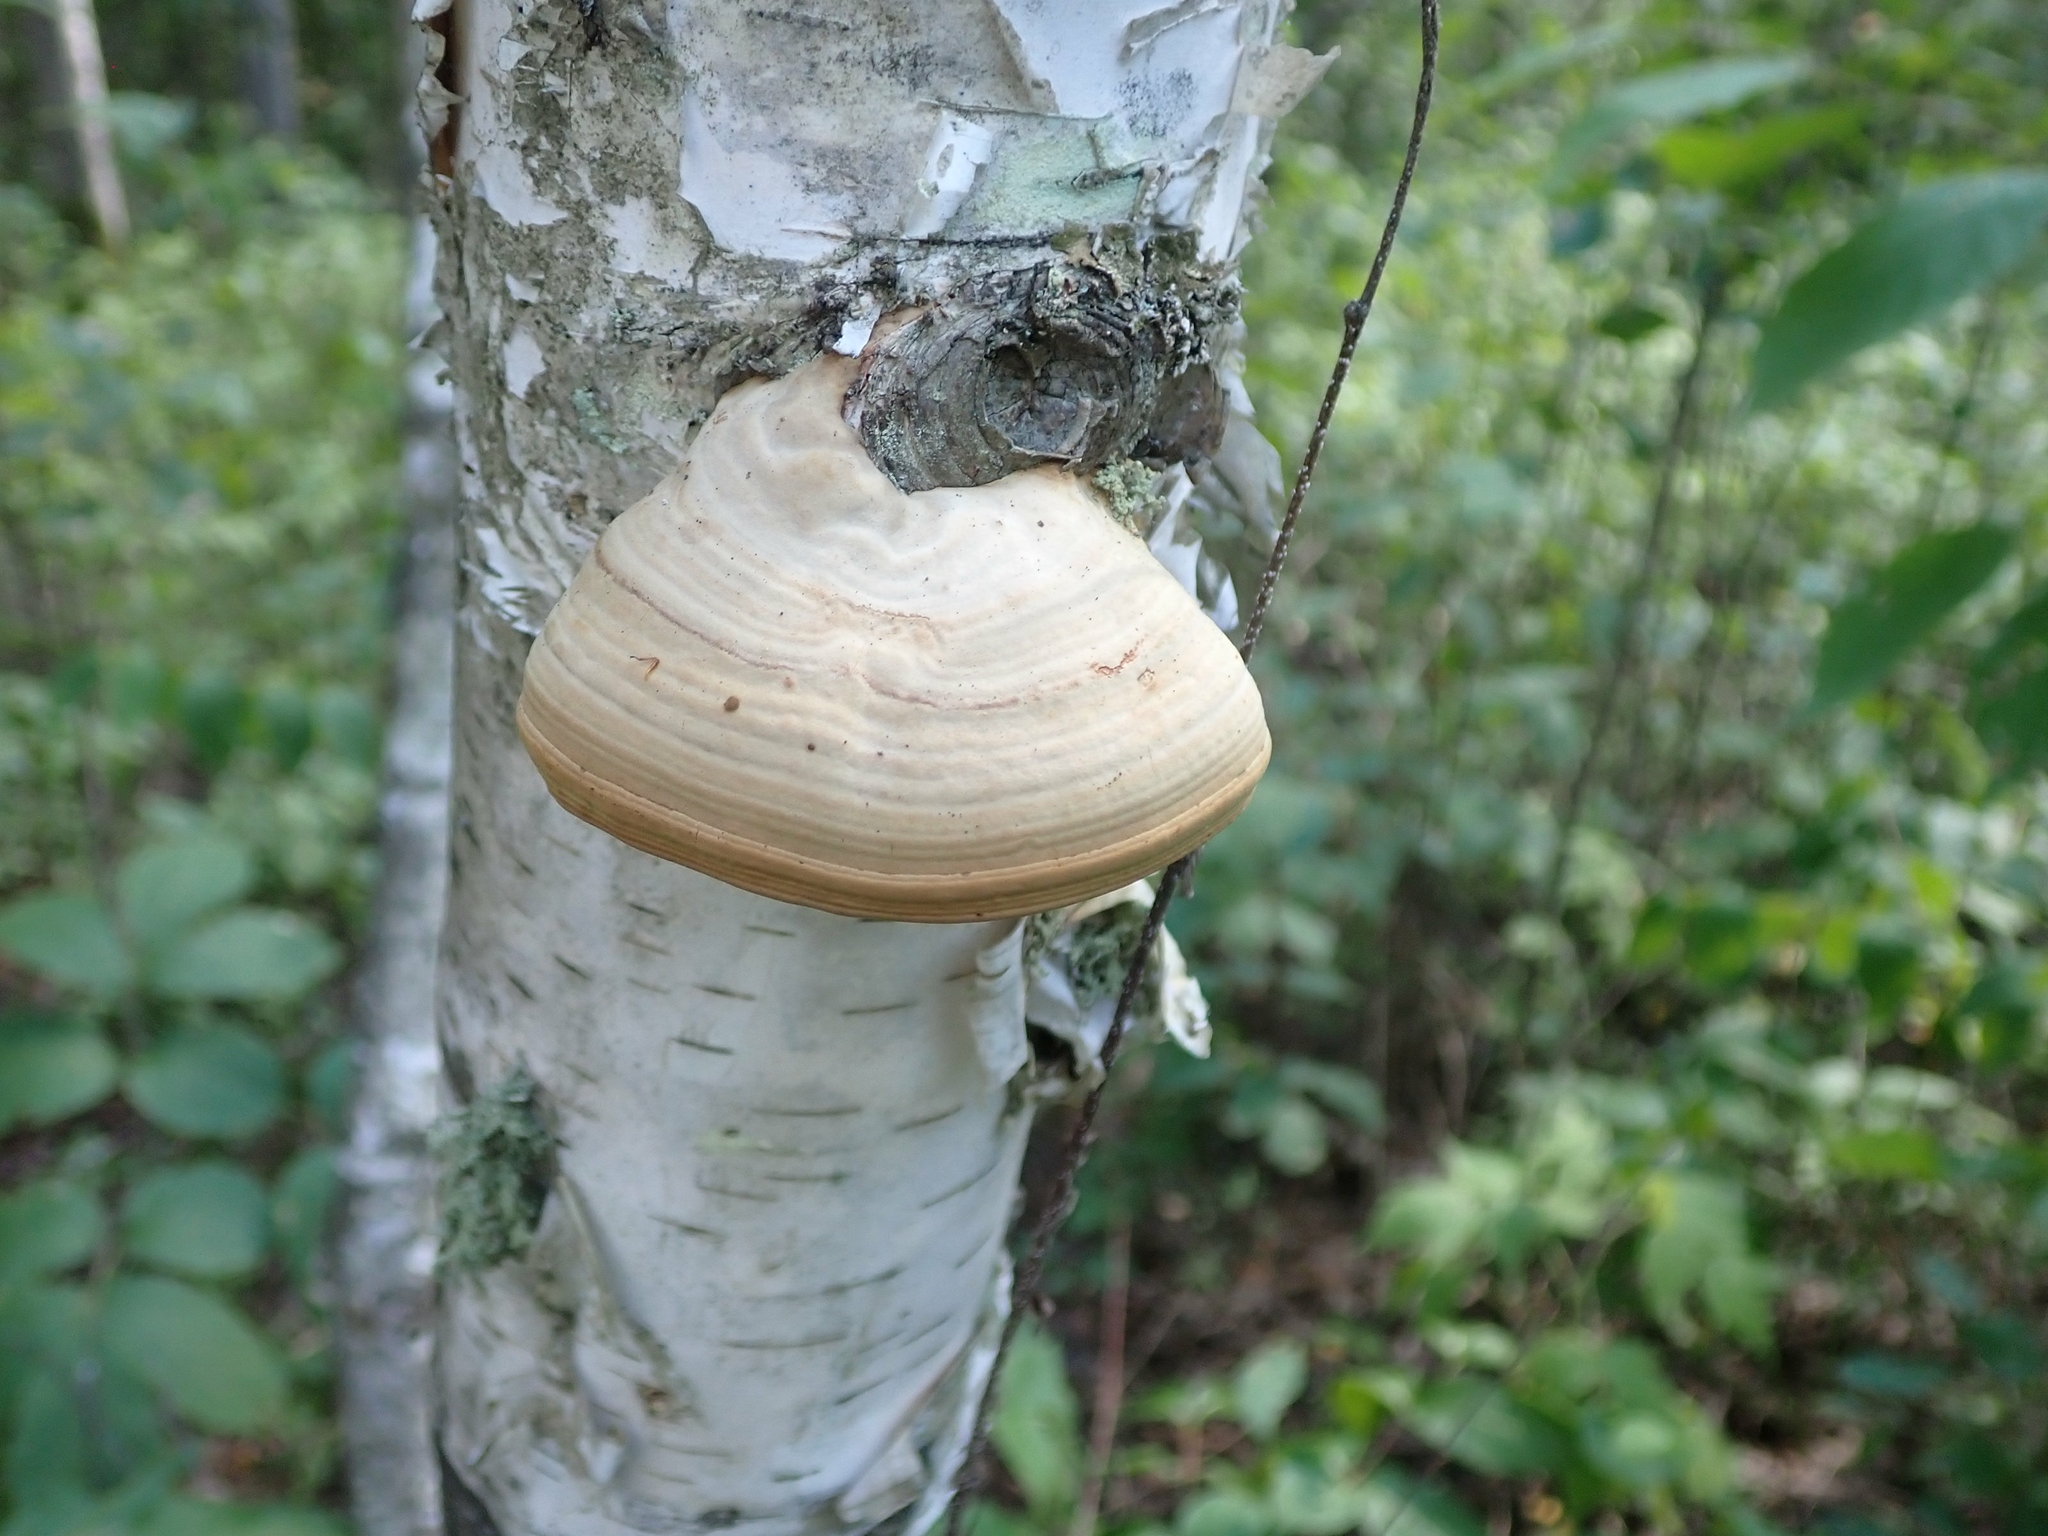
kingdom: Fungi
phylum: Basidiomycota
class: Agaricomycetes
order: Polyporales
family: Polyporaceae
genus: Fomes
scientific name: Fomes fomentarius
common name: Hoof fungus
